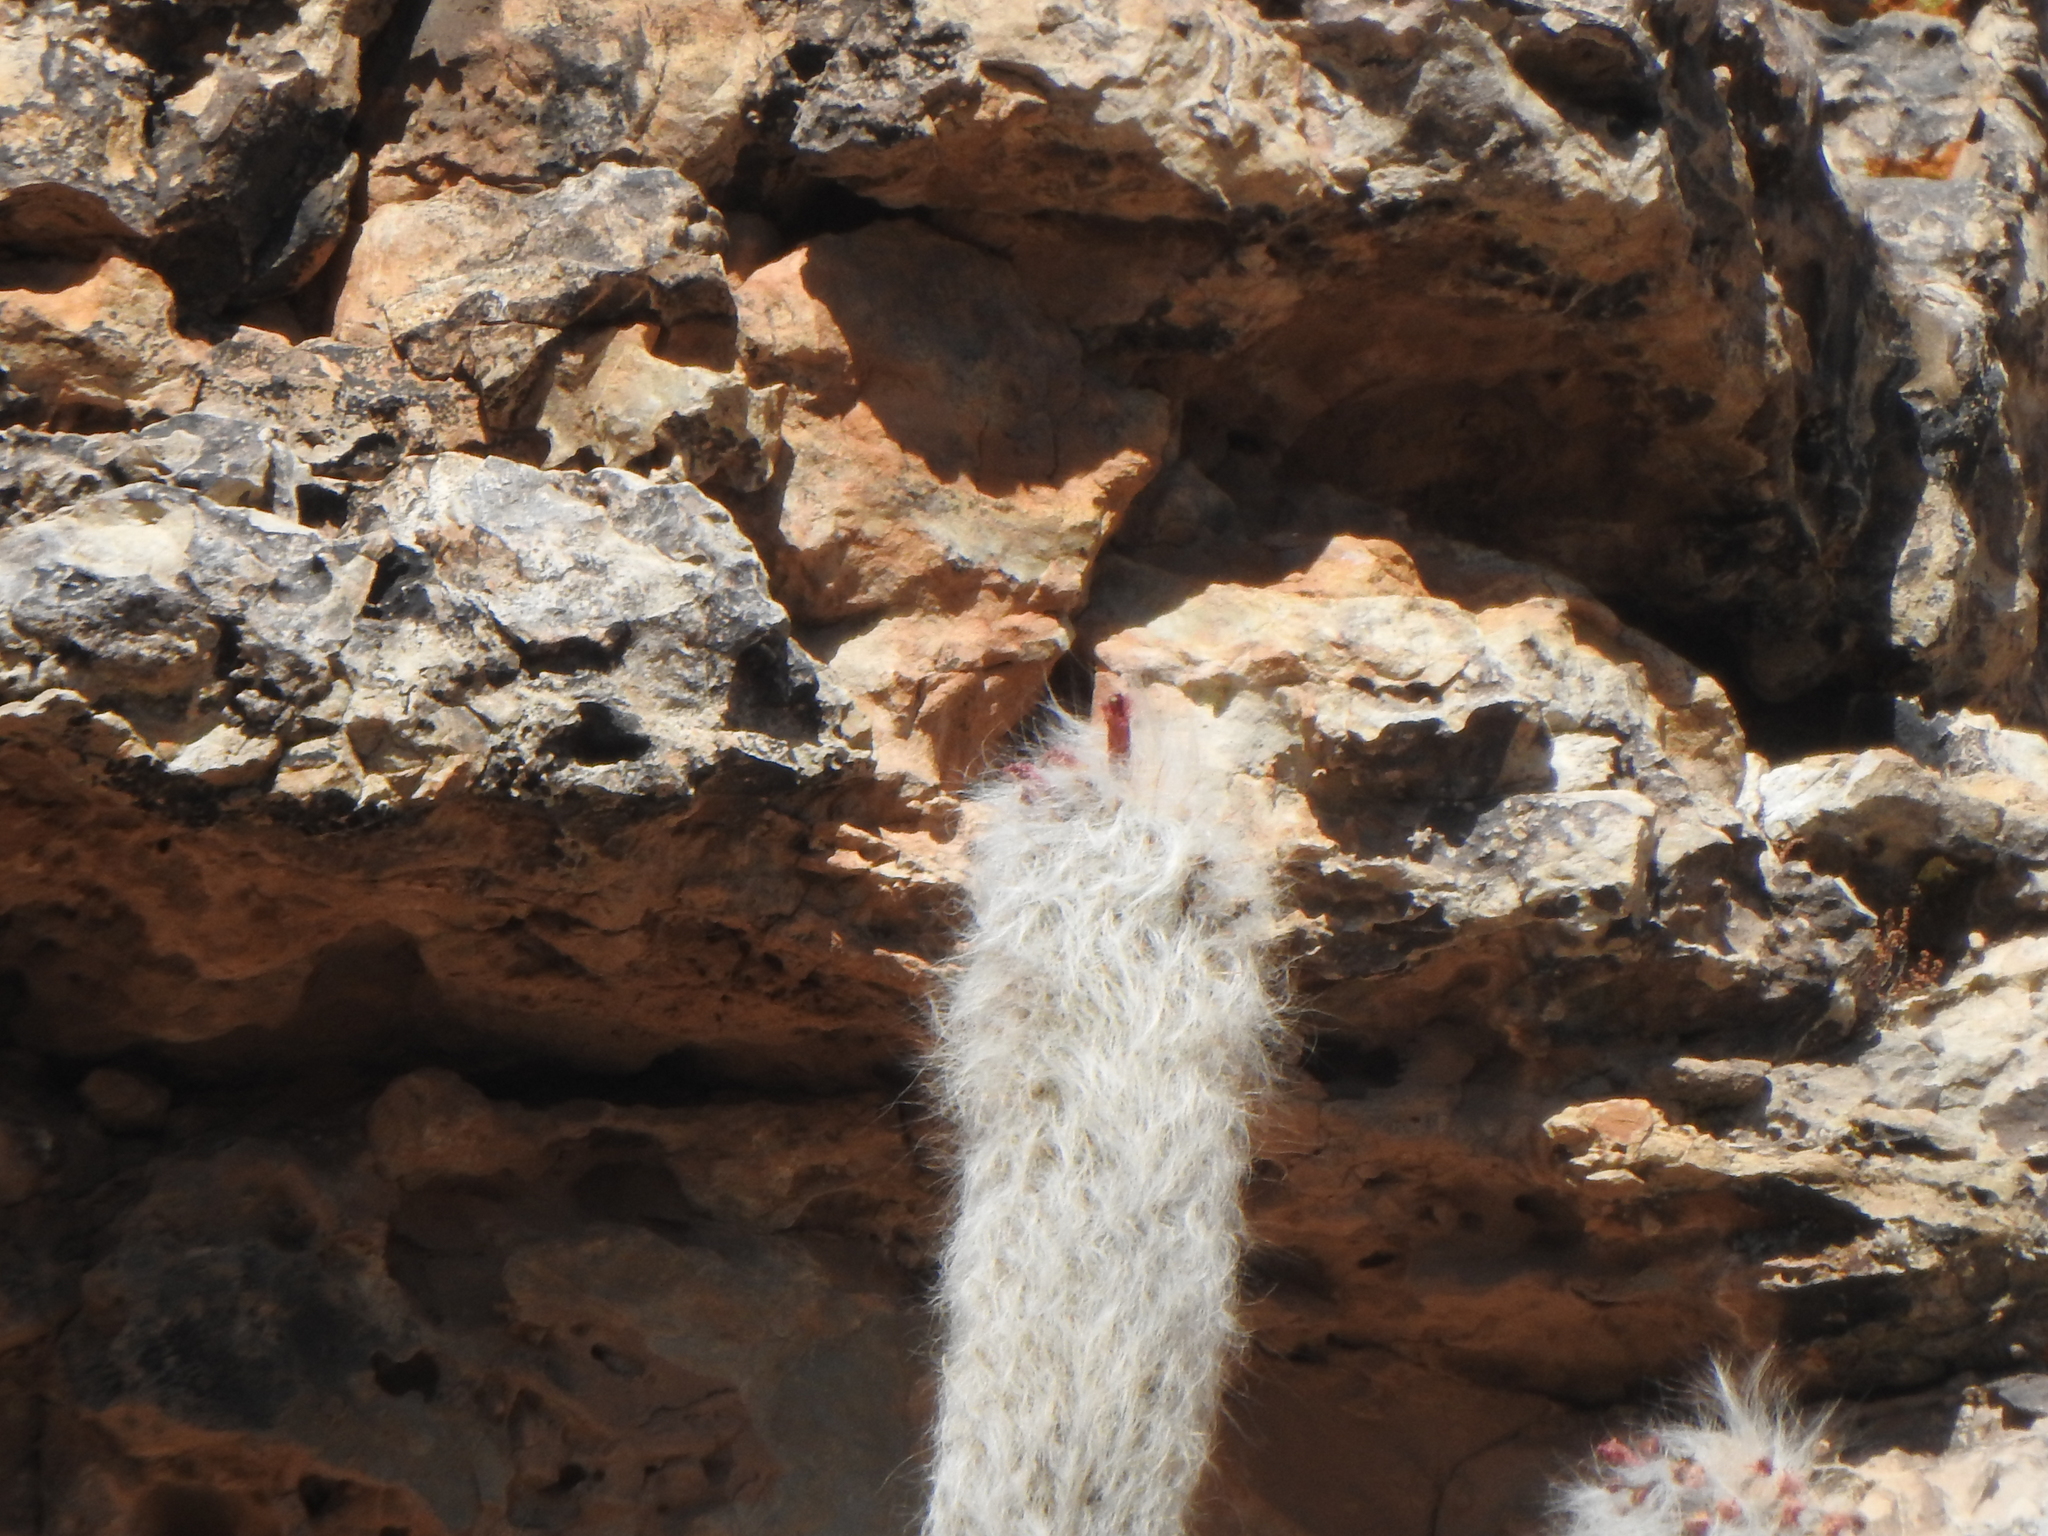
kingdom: Plantae
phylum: Tracheophyta
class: Magnoliopsida
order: Caryophyllales
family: Cactaceae
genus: Oreocereus
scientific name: Oreocereus celsianus
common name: Old-man-of-the-andes
